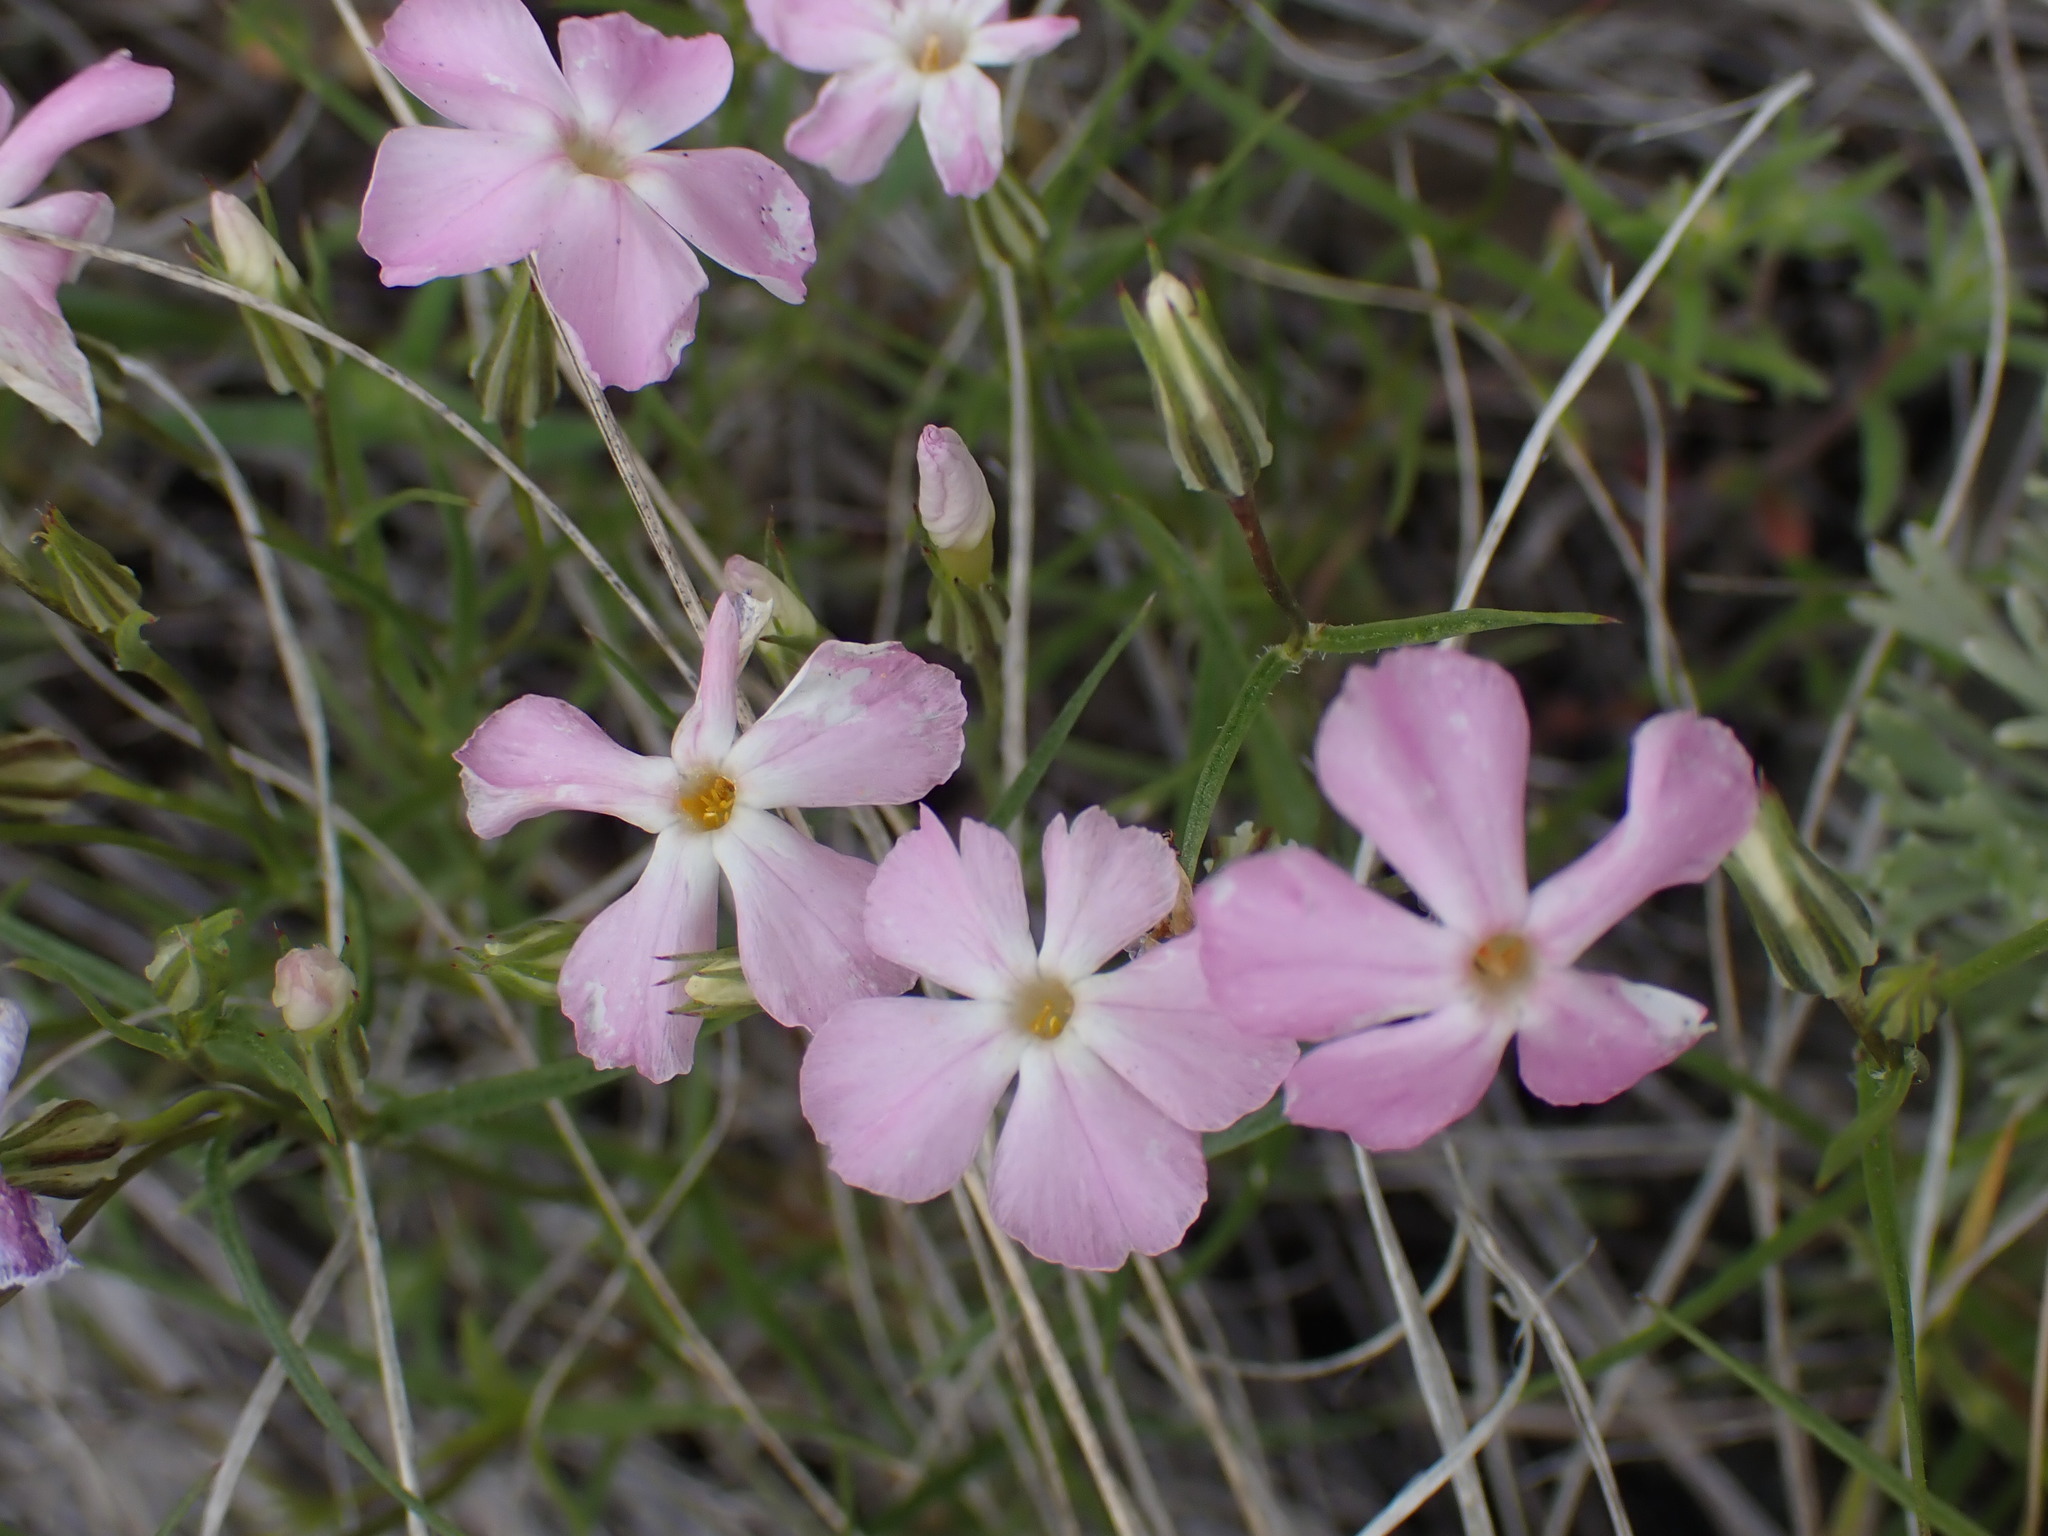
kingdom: Plantae
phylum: Tracheophyta
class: Magnoliopsida
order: Ericales
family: Polemoniaceae
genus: Phlox
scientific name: Phlox longifolia
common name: Longleaf phlox
